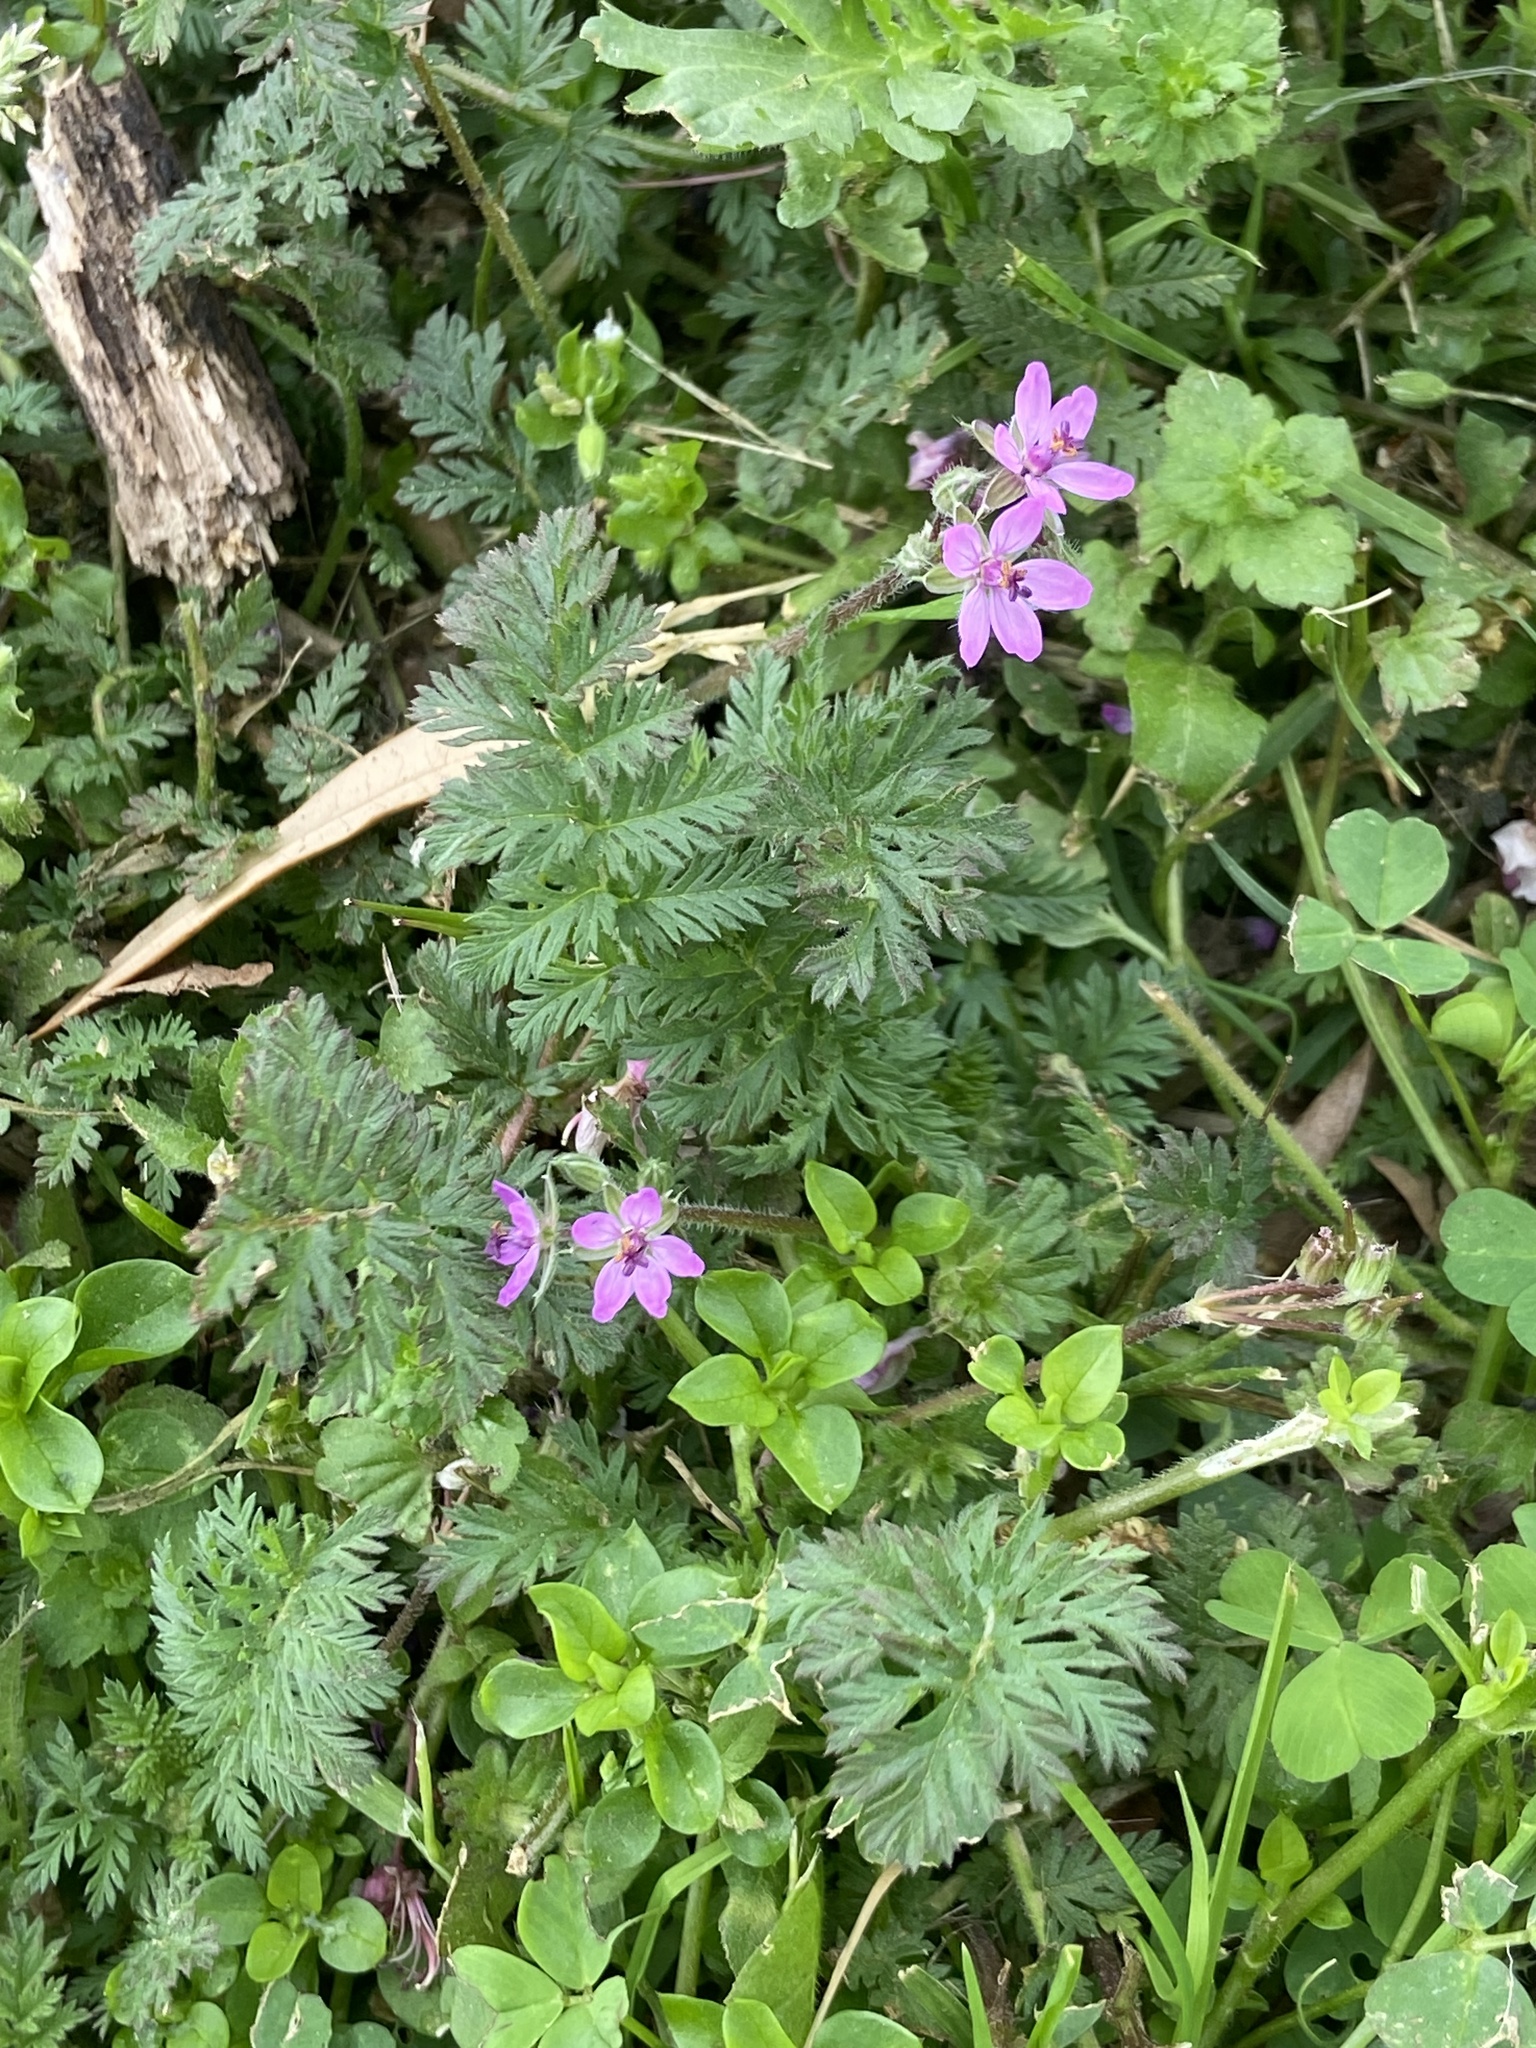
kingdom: Plantae
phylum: Tracheophyta
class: Magnoliopsida
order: Geraniales
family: Geraniaceae
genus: Erodium
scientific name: Erodium cicutarium
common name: Common stork's-bill
